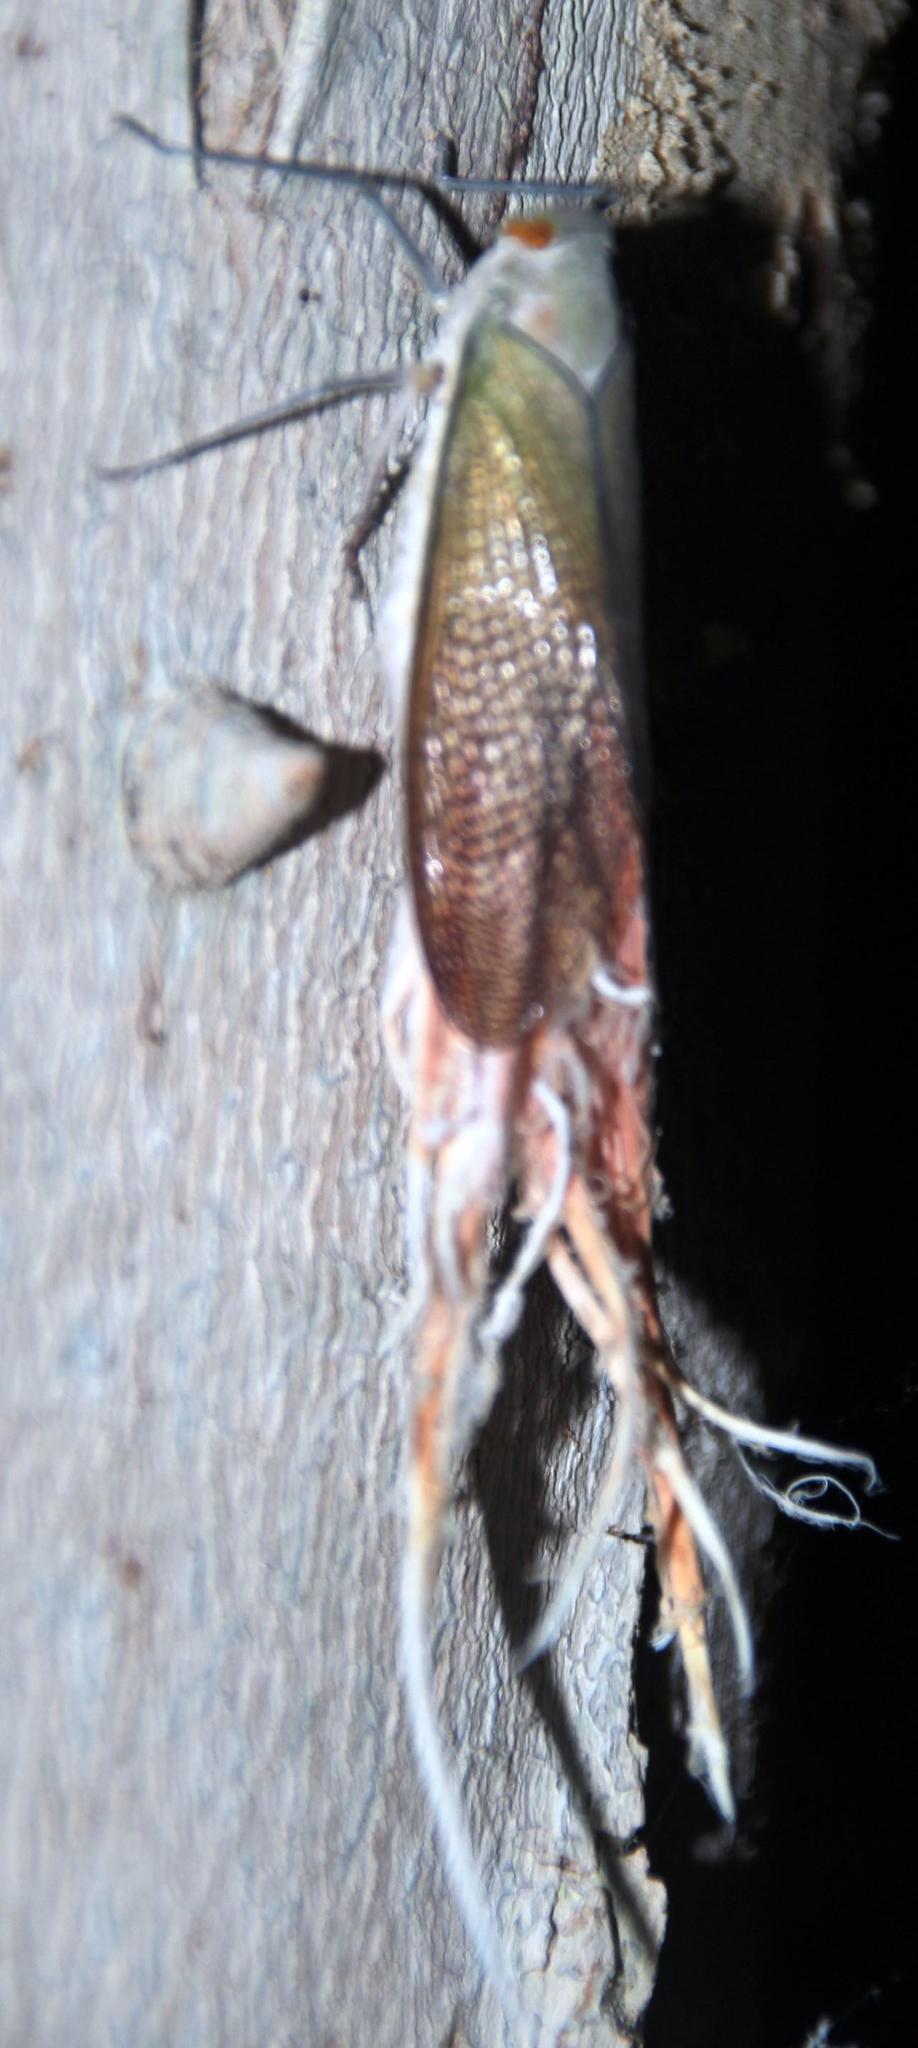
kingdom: Animalia
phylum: Arthropoda
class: Insecta
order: Hemiptera
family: Fulgoridae
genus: Pterodictya
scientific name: Pterodictya reticularis
